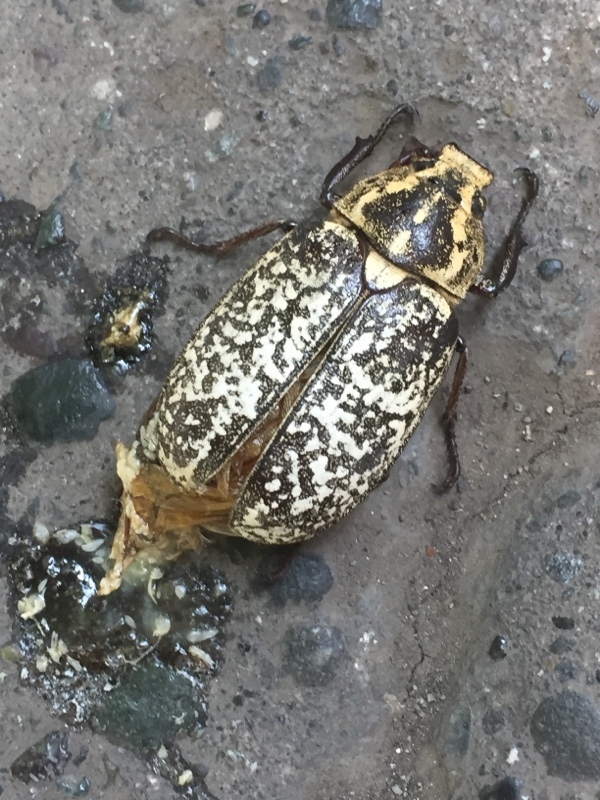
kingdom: Animalia
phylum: Arthropoda
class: Insecta
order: Coleoptera
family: Scarabaeidae
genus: Polyphylla
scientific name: Polyphylla fullo
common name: Pine chafer
